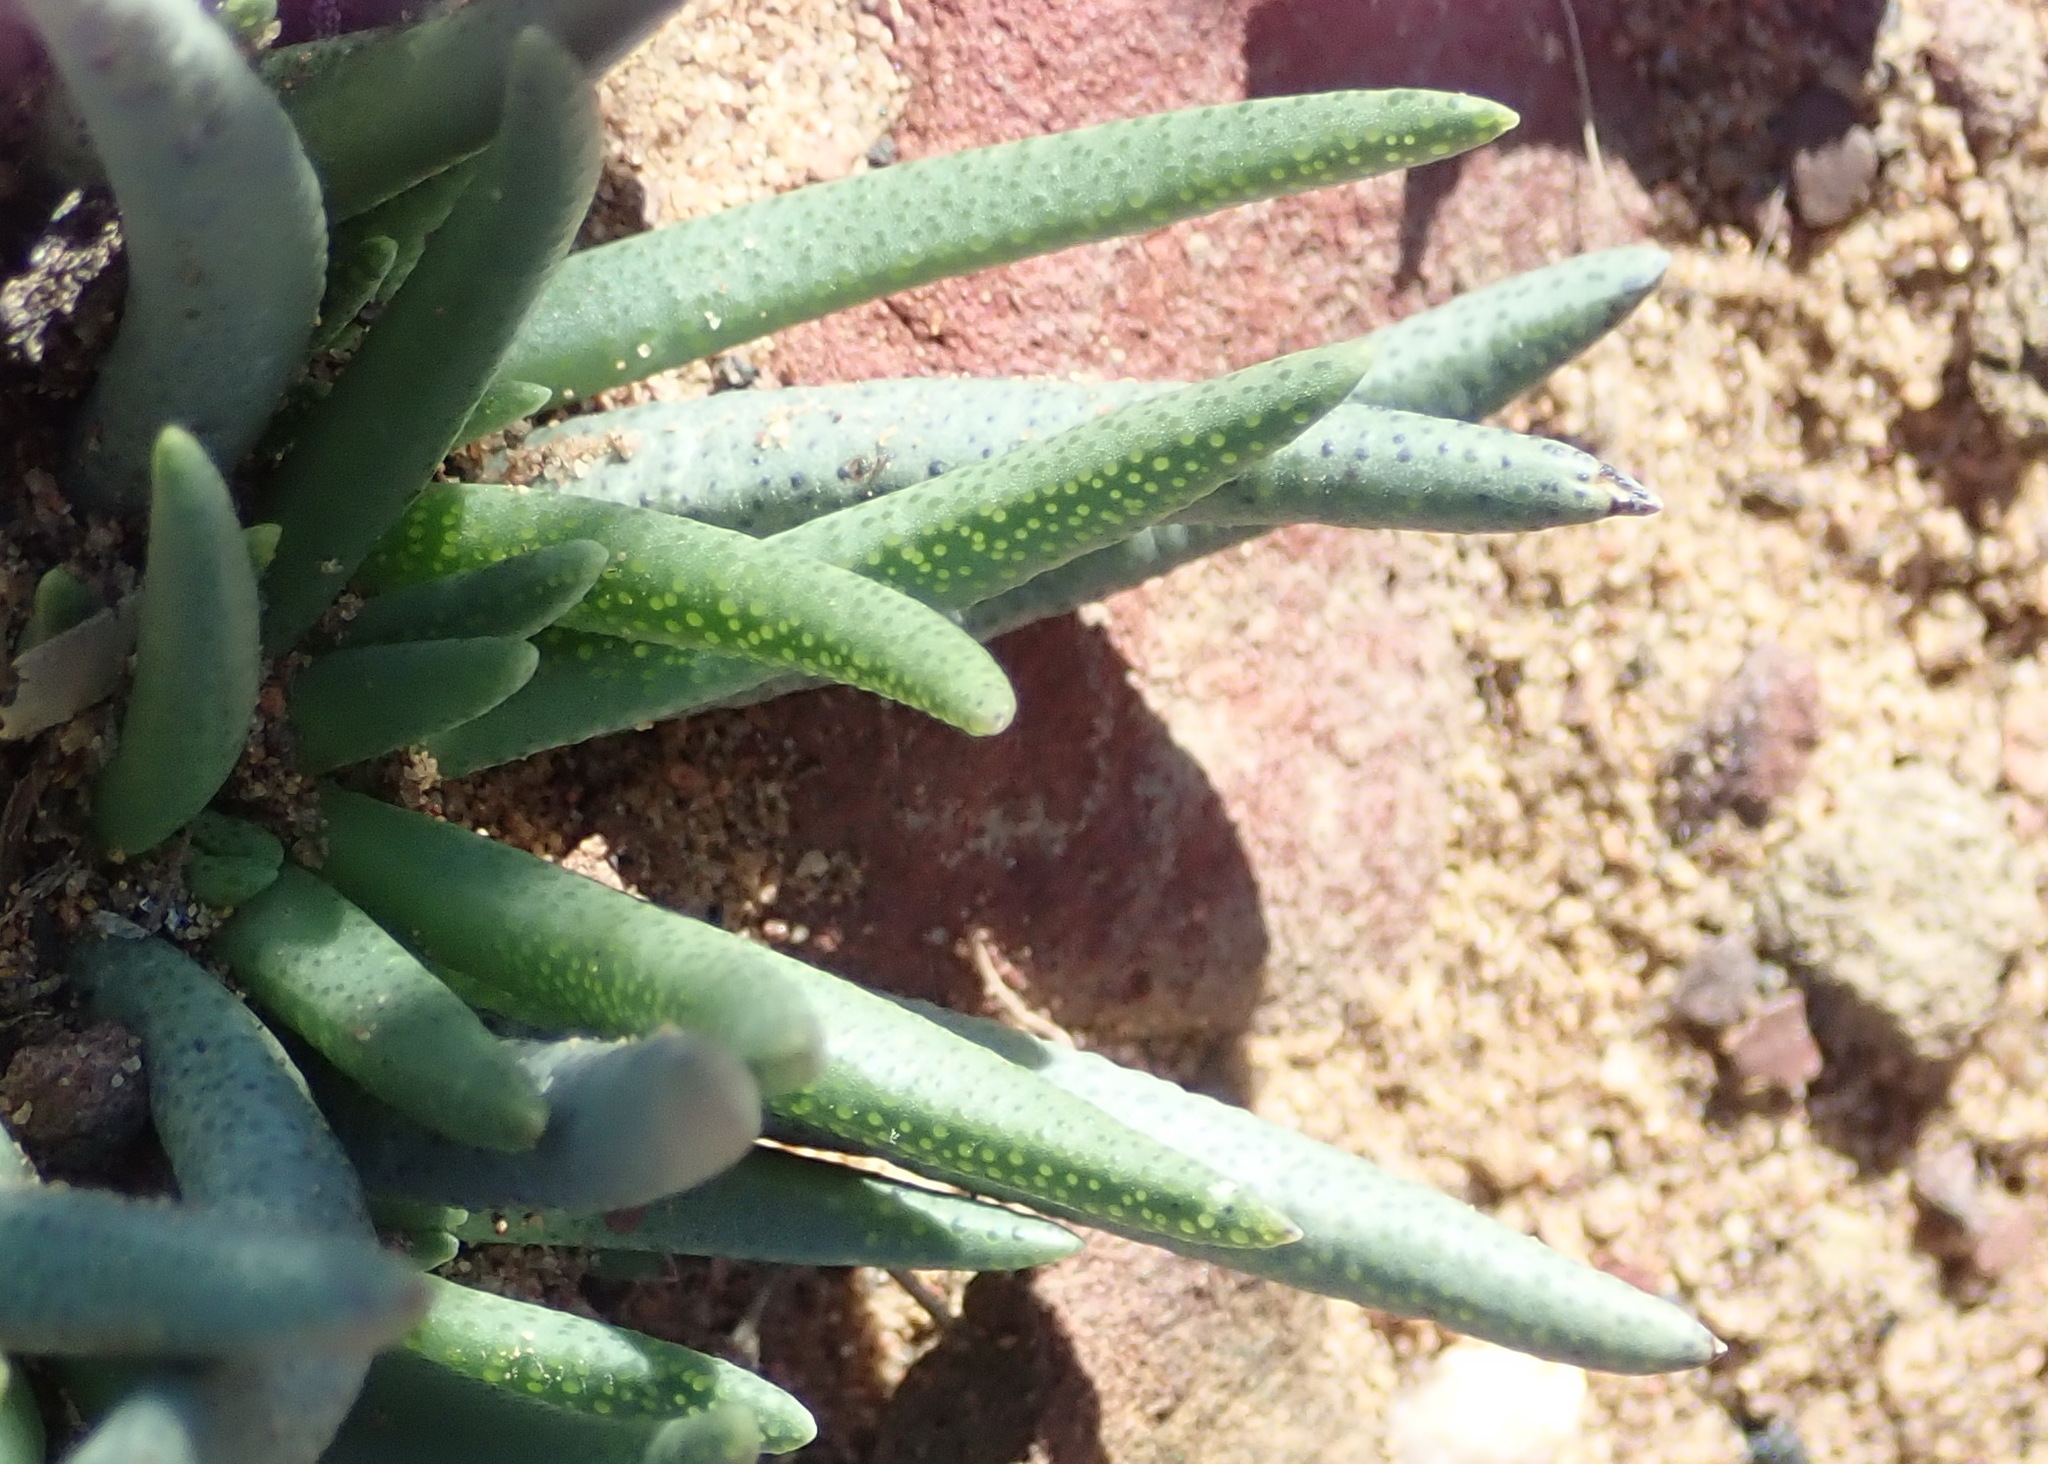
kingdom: Plantae
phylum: Tracheophyta
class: Magnoliopsida
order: Caryophyllales
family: Aizoaceae
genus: Marlothistella
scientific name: Marlothistella stenophylla
